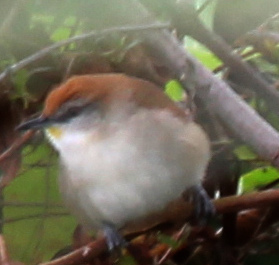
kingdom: Animalia
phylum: Chordata
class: Aves
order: Passeriformes
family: Furnariidae
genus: Certhiaxis
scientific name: Certhiaxis cinnamomeus
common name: Yellow-chinned spinetail
